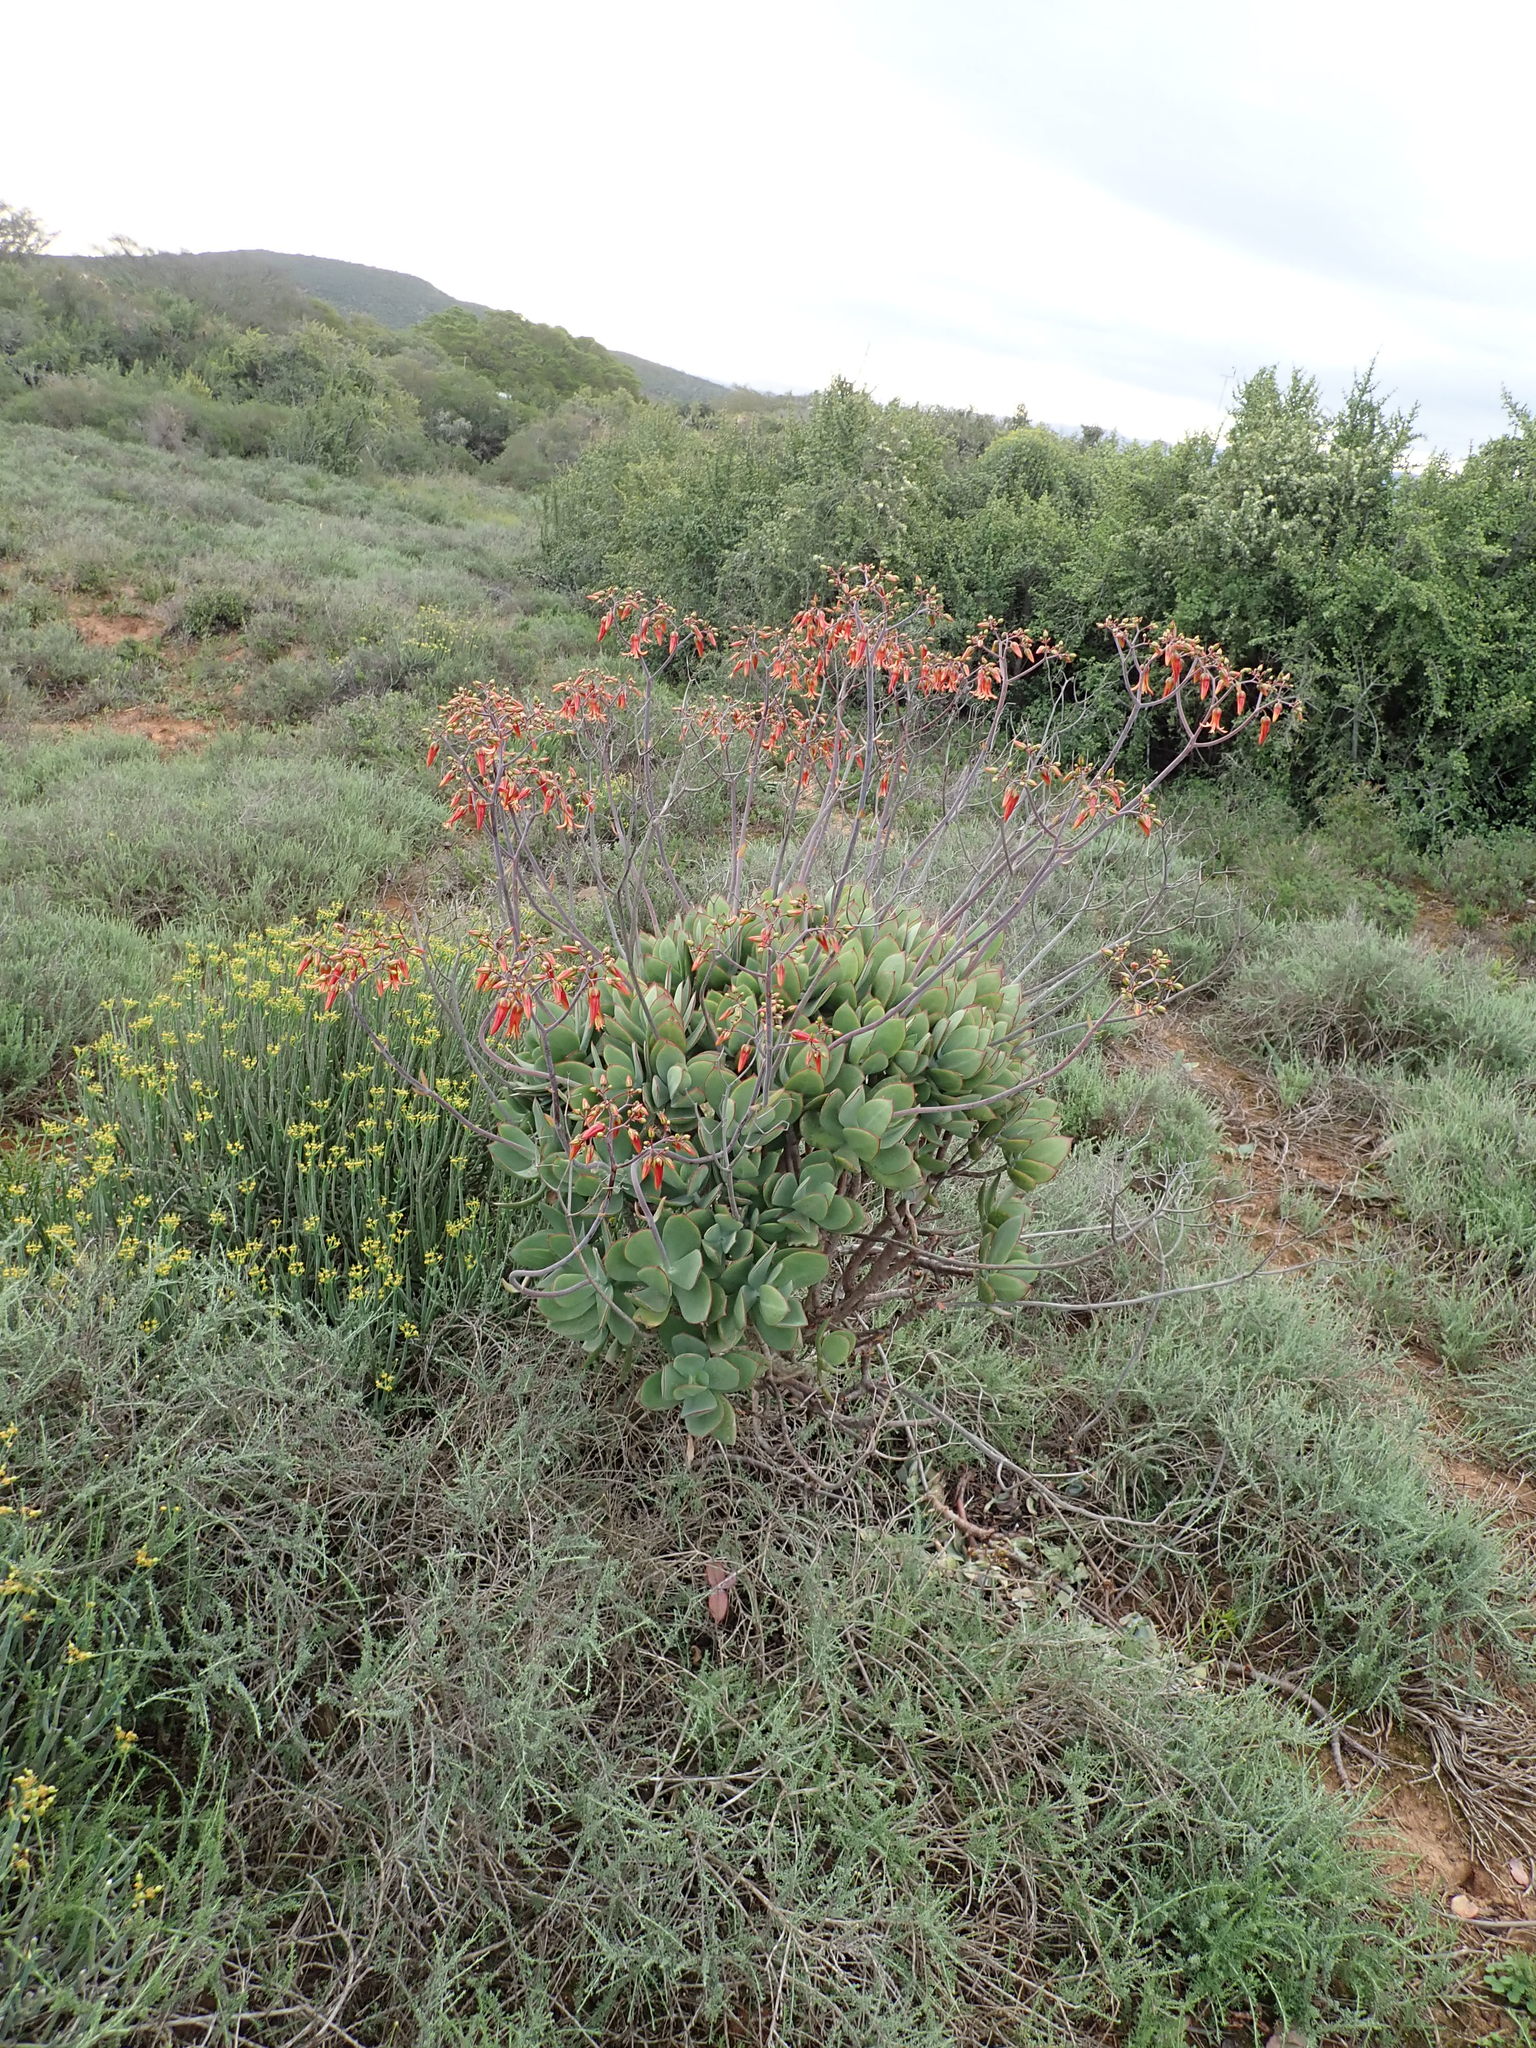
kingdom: Plantae
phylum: Tracheophyta
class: Magnoliopsida
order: Saxifragales
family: Crassulaceae
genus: Cotyledon
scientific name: Cotyledon velutina
